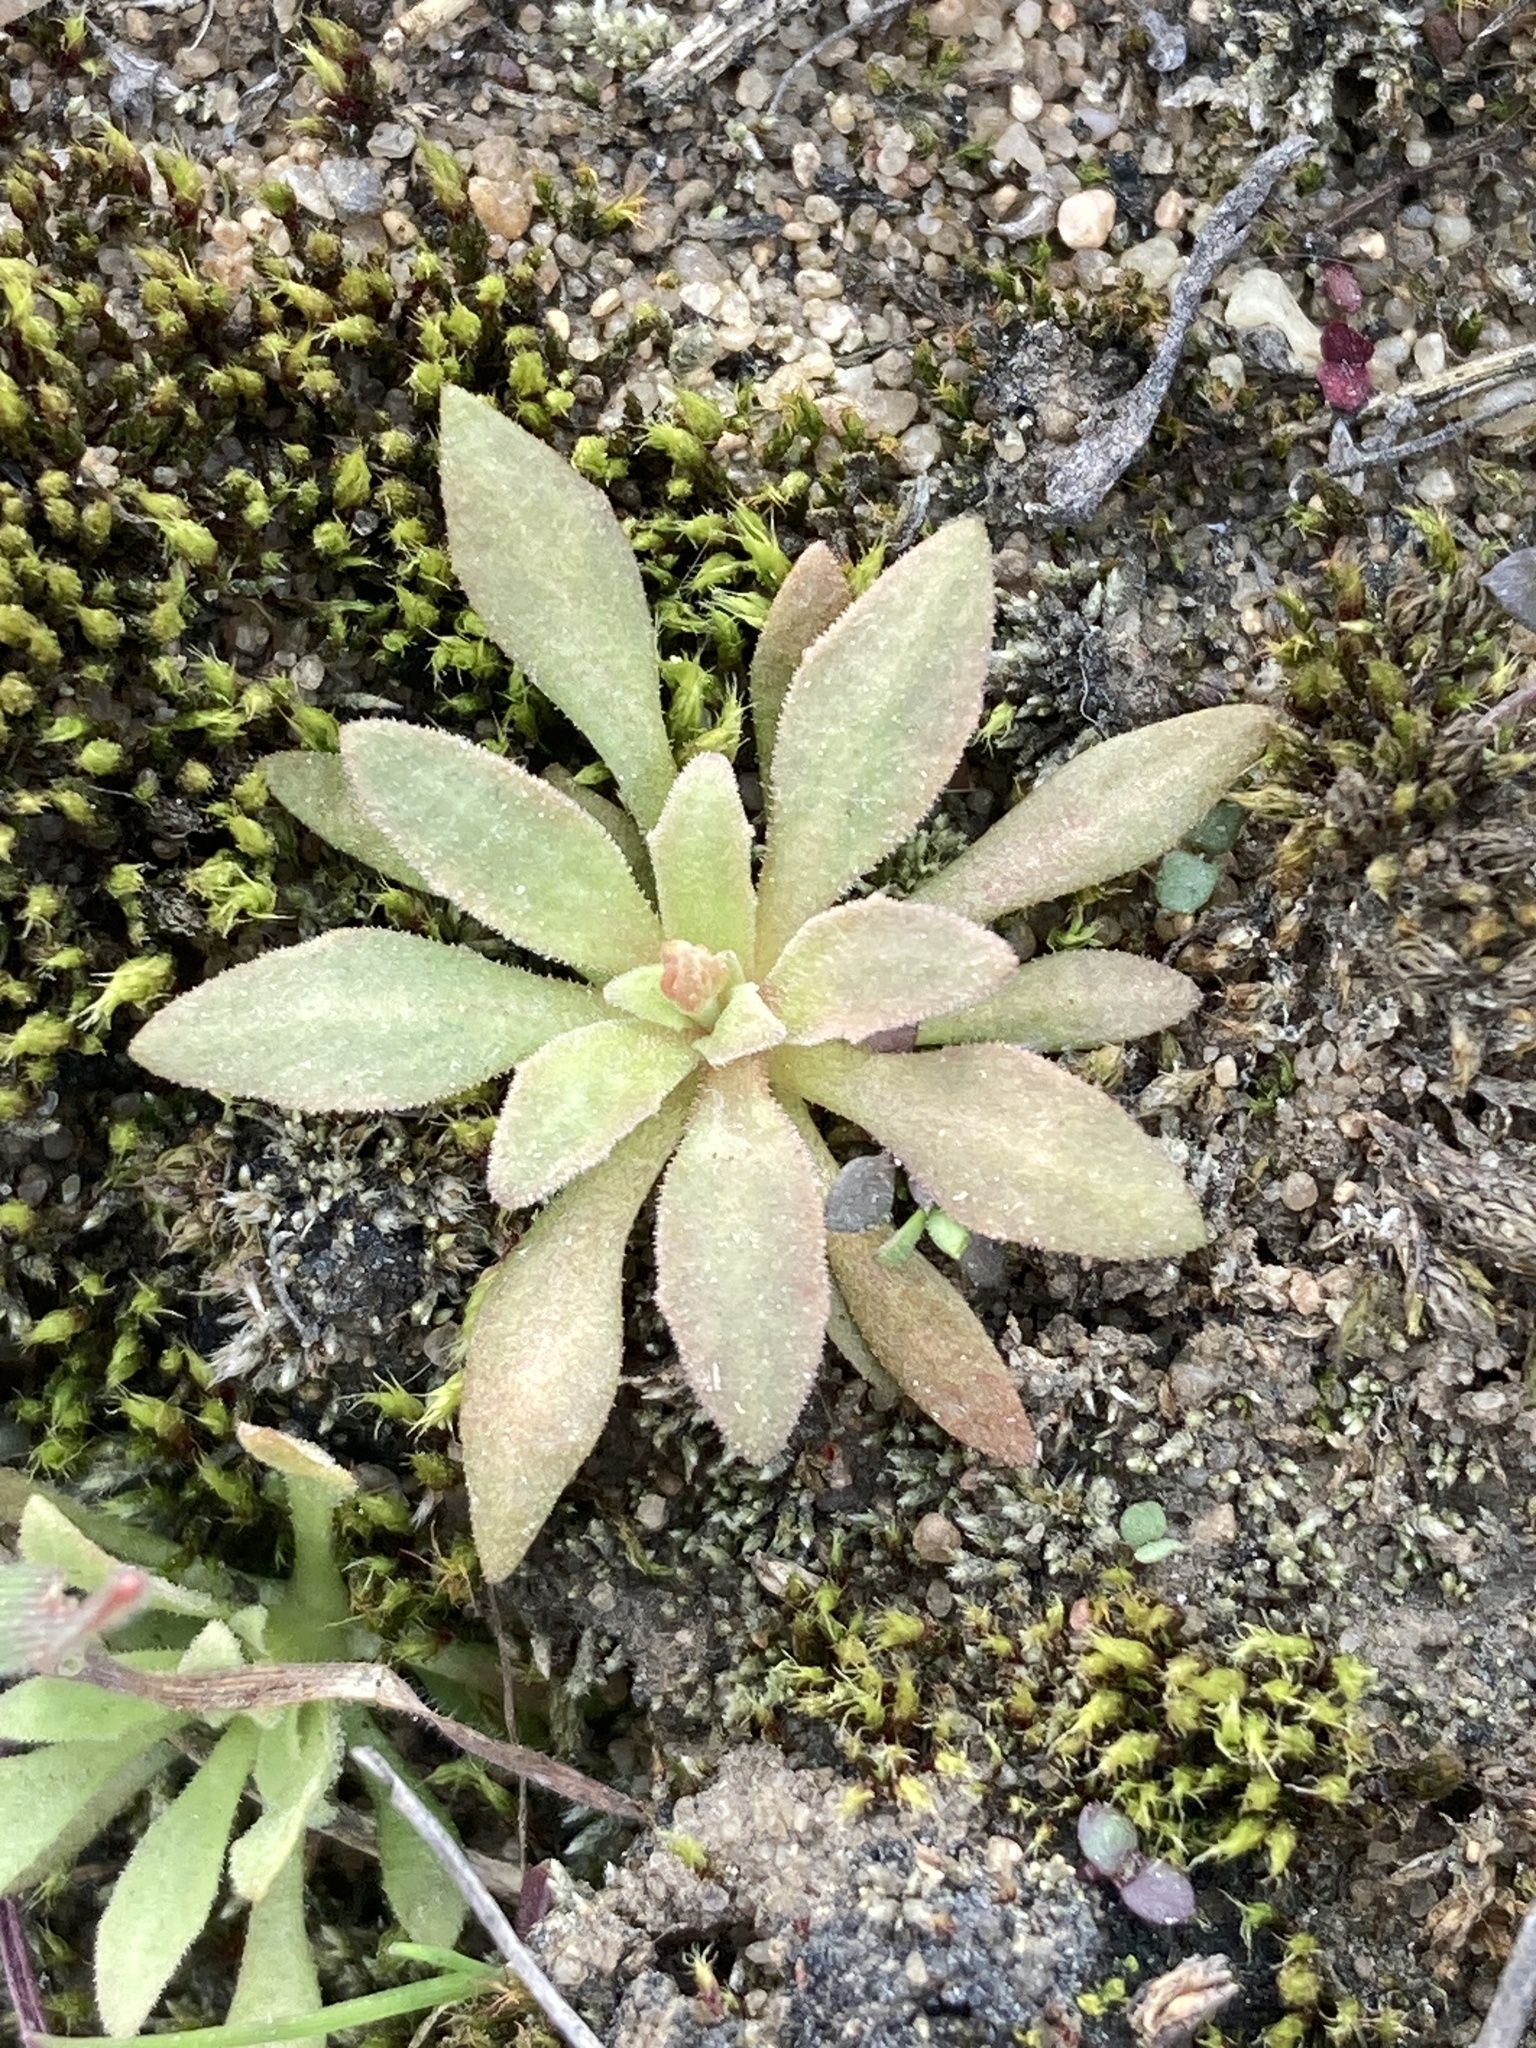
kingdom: Plantae
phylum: Tracheophyta
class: Magnoliopsida
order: Ericales
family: Primulaceae
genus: Androsace
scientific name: Androsace septentrionalis
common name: Hairy northern fairy-candelabra
